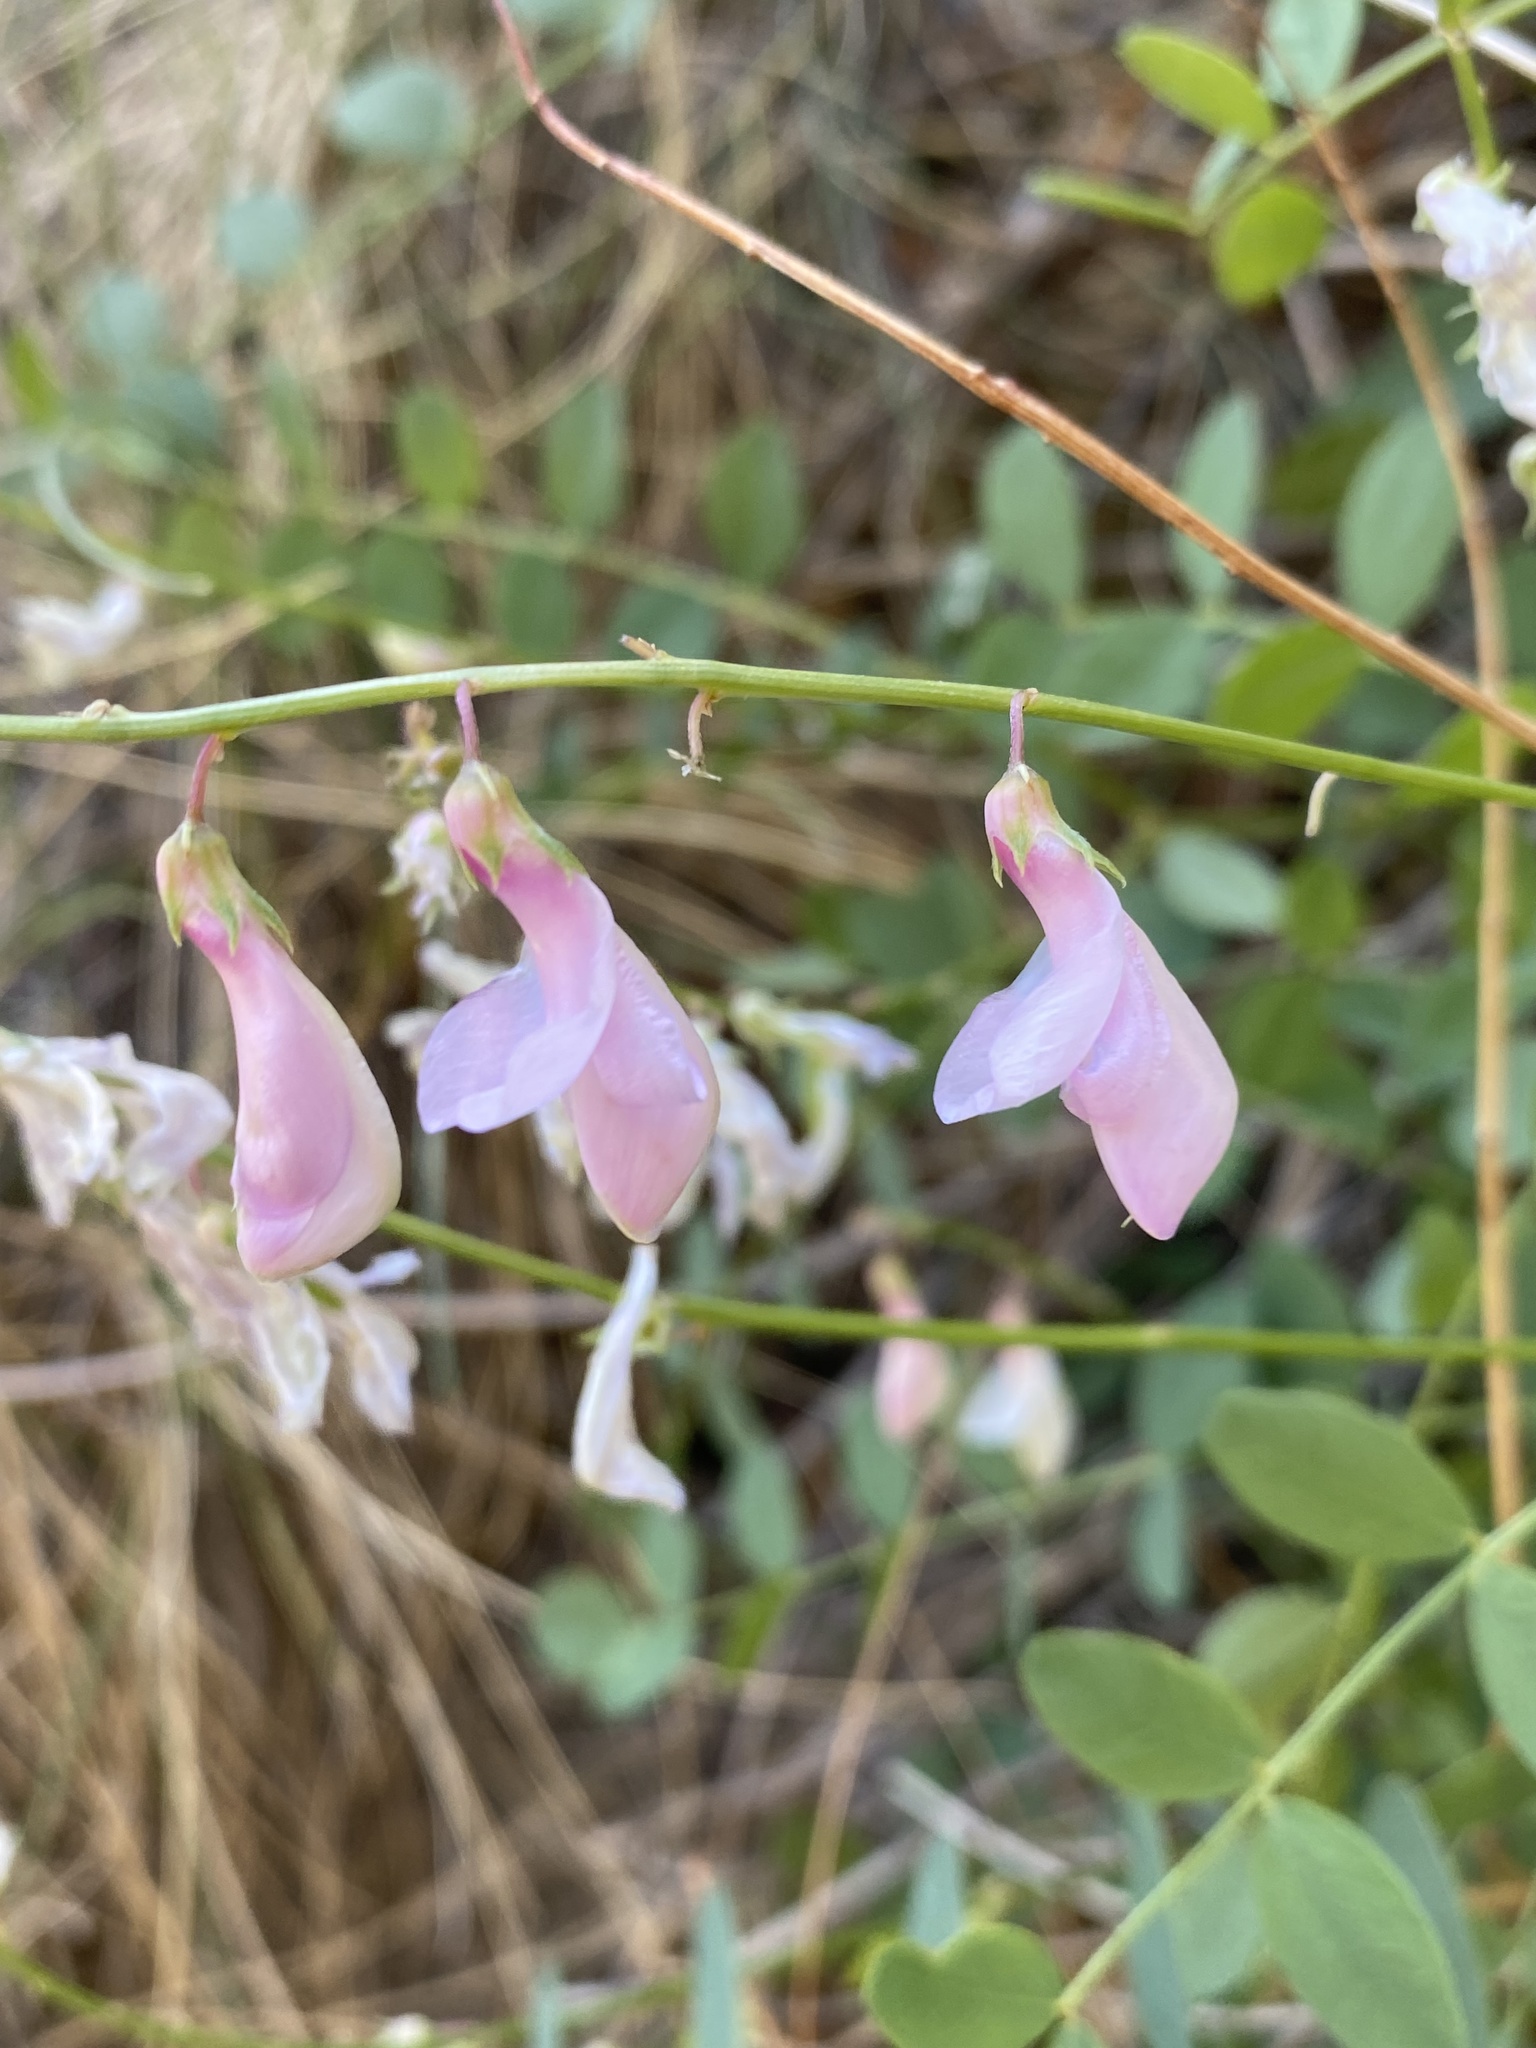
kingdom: Plantae
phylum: Tracheophyta
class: Magnoliopsida
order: Fabales
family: Fabaceae
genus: Hedysarum
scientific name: Hedysarum occidentale
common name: Western hedysarum
